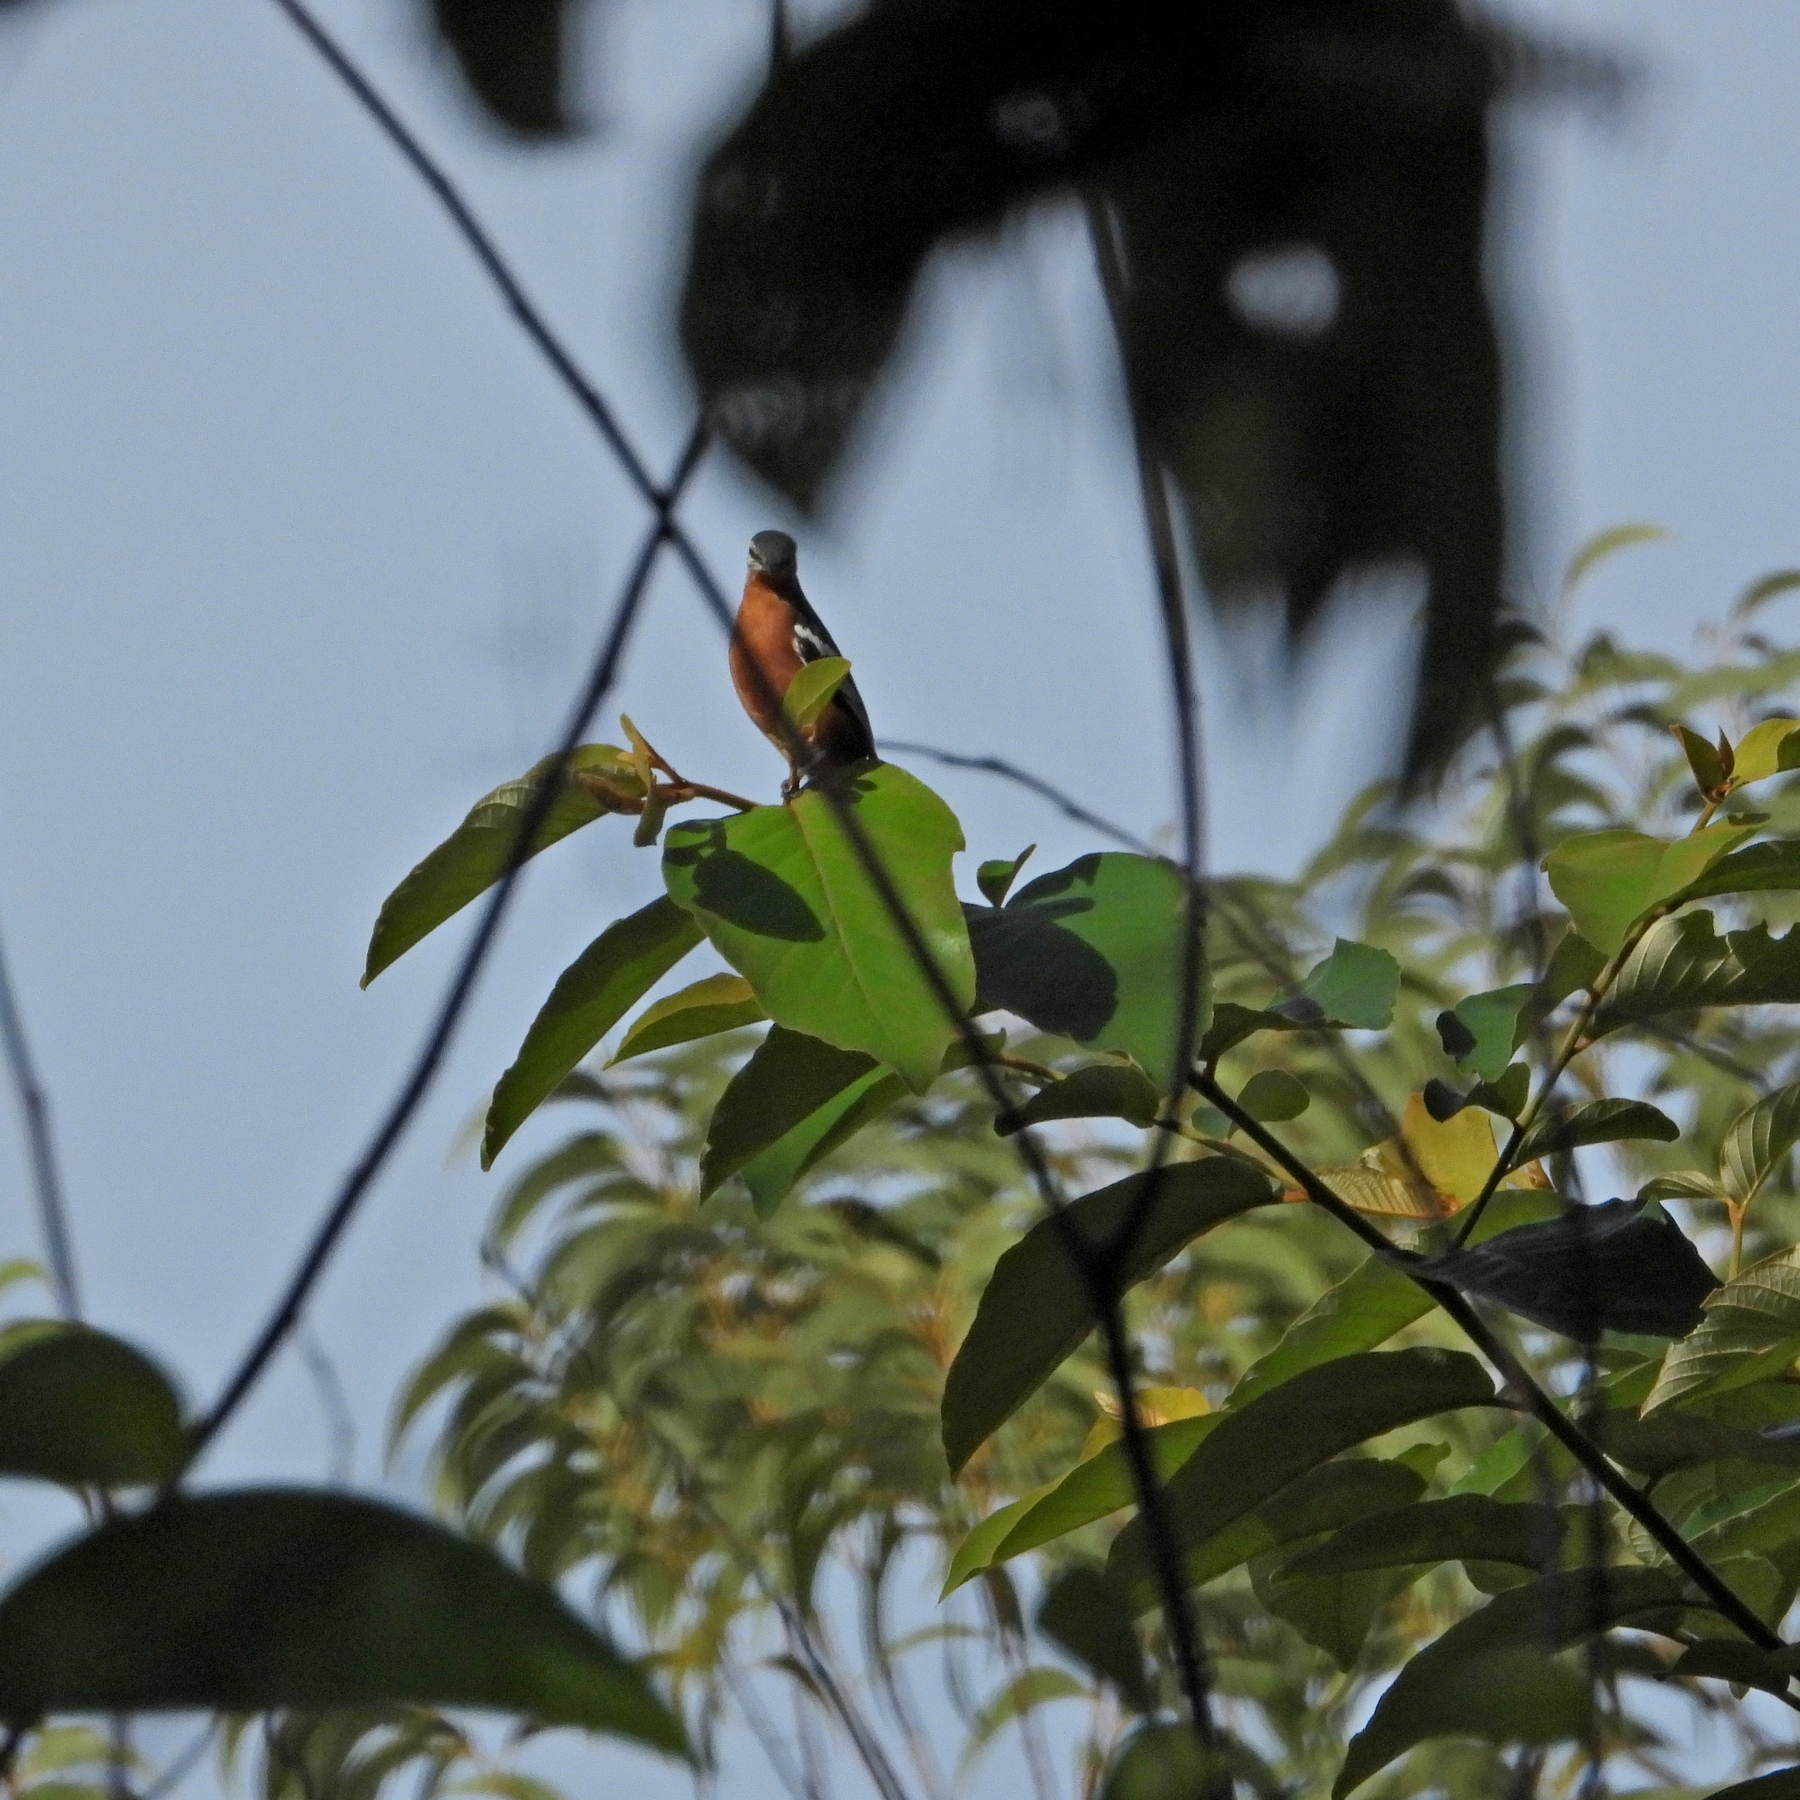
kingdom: Animalia
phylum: Chordata
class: Aves
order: Passeriformes
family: Campephagidae
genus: Lalage
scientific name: Lalage aurea
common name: Rufous-bellied triller
